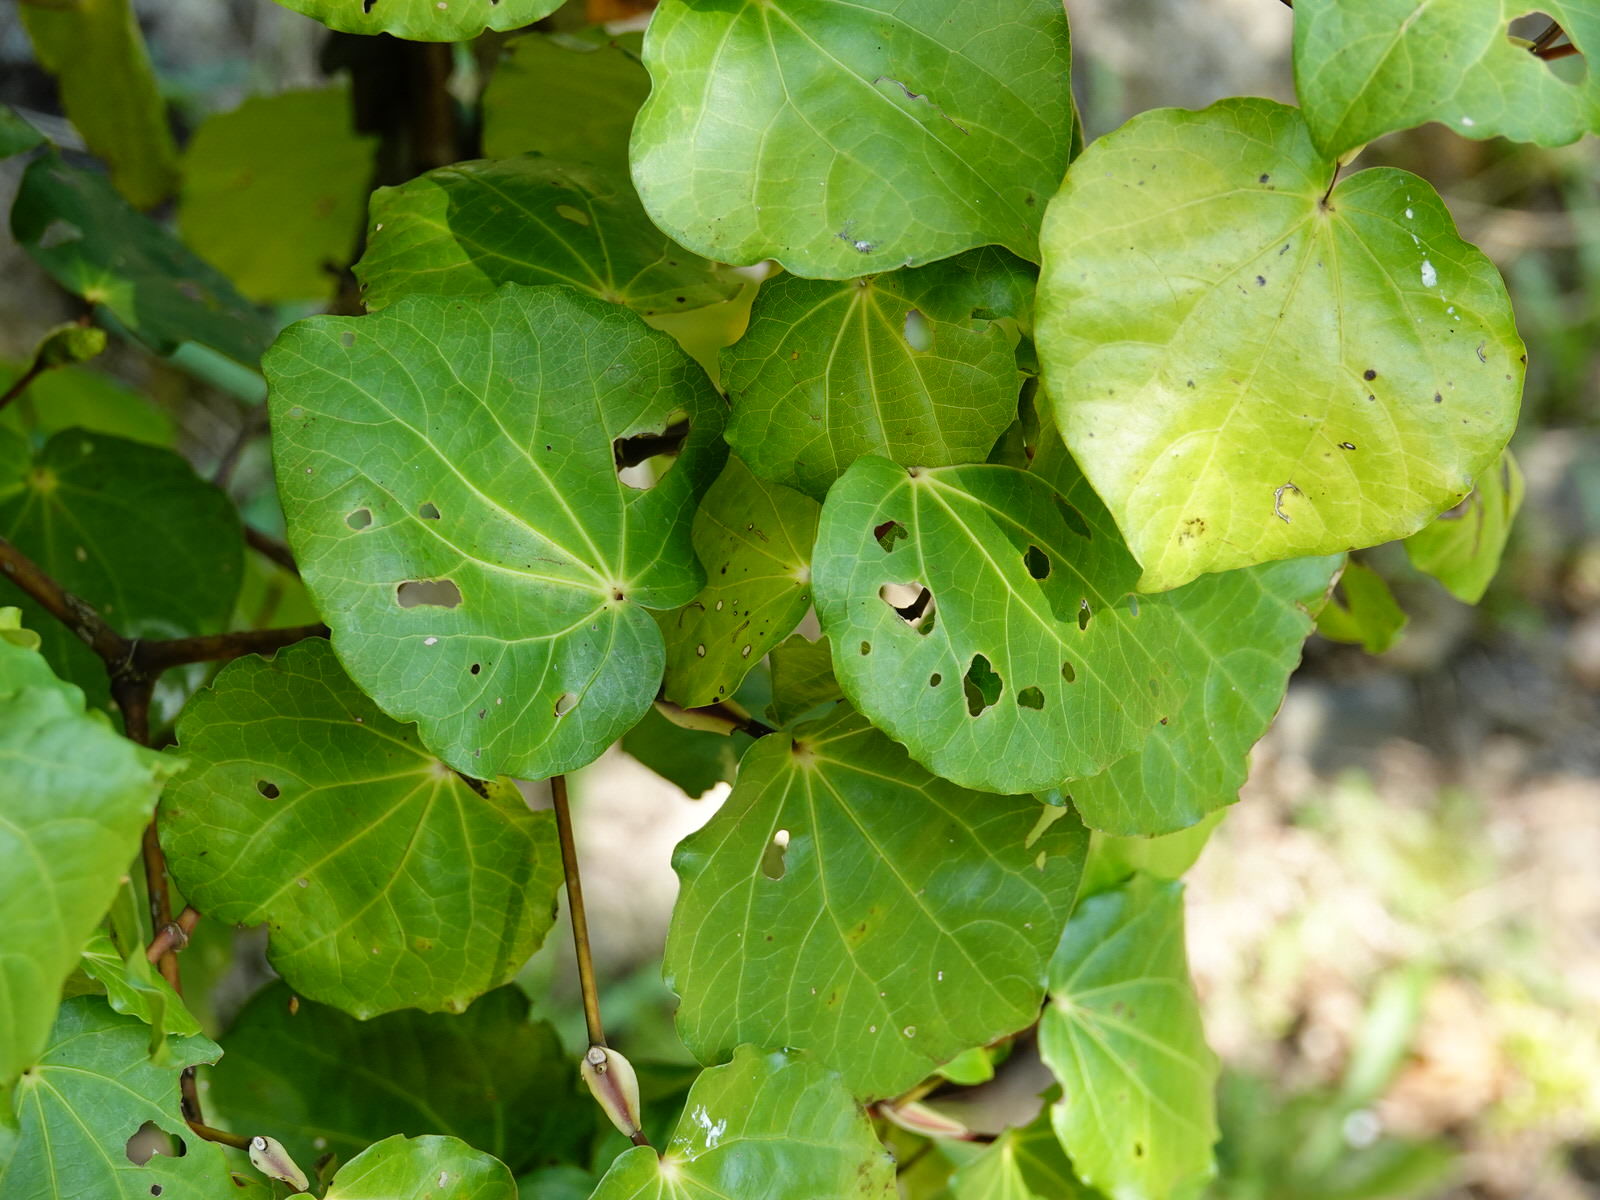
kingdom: Plantae
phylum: Tracheophyta
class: Magnoliopsida
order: Piperales
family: Piperaceae
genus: Macropiper
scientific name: Macropiper excelsum
